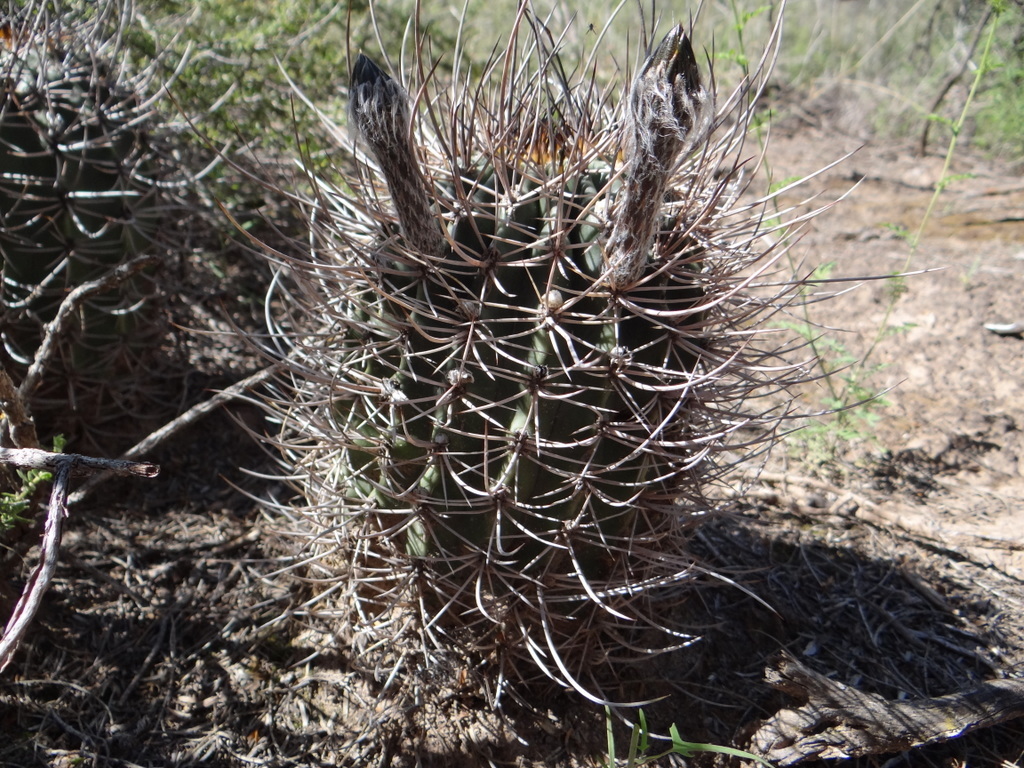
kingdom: Plantae
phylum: Tracheophyta
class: Magnoliopsida
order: Caryophyllales
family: Cactaceae
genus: Acanthocalycium
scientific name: Acanthocalycium leucanthum
